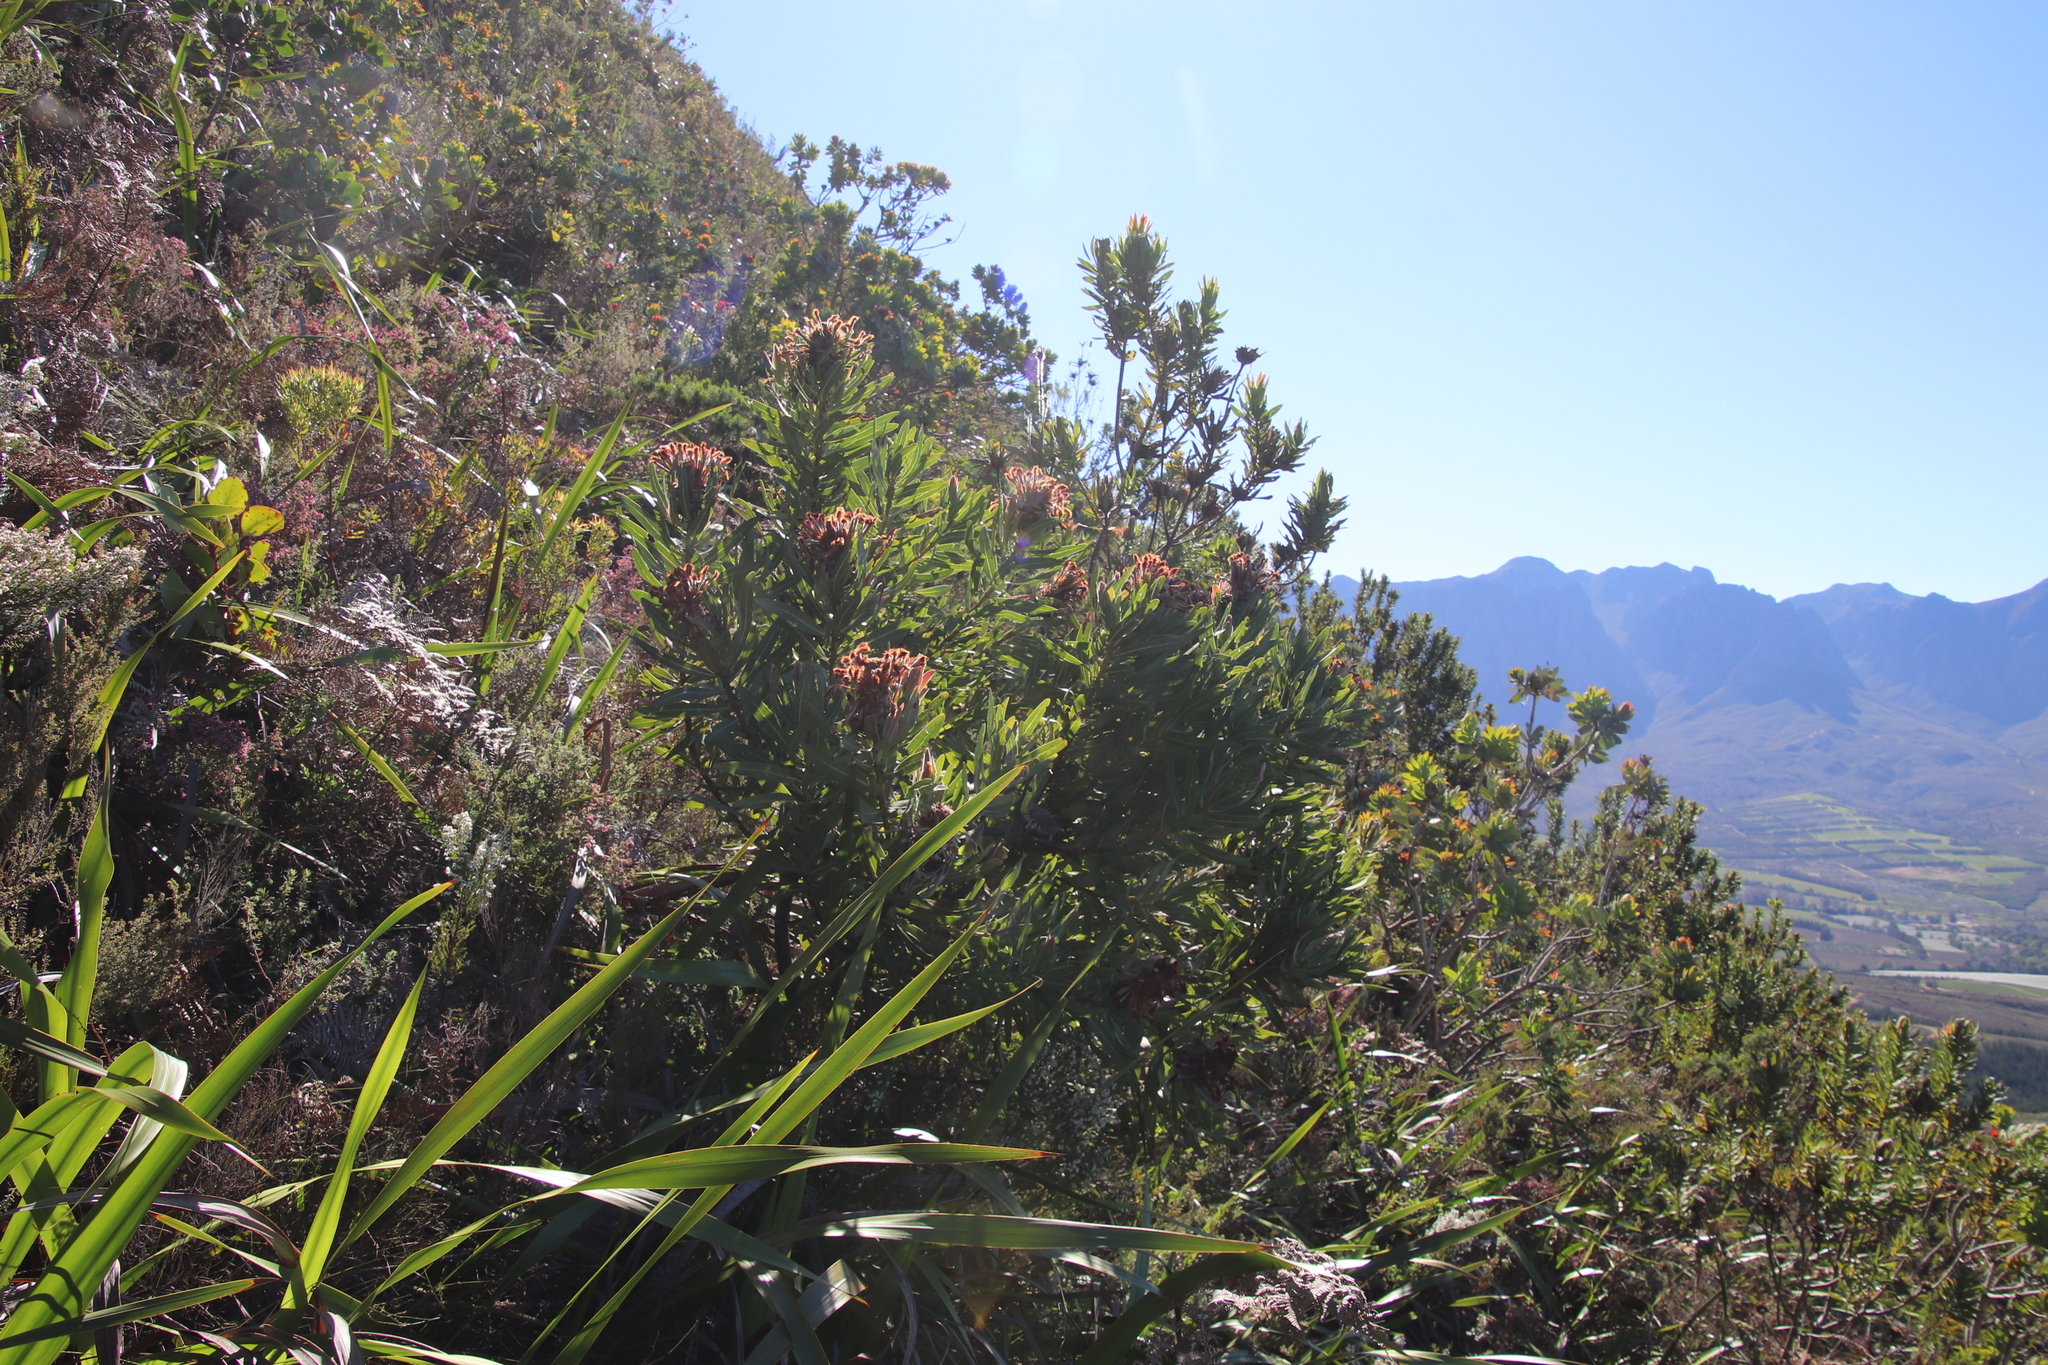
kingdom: Plantae
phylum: Tracheophyta
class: Magnoliopsida
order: Proteales
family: Proteaceae
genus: Protea
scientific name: Protea laurifolia
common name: Grey-leaf sugarbsh
